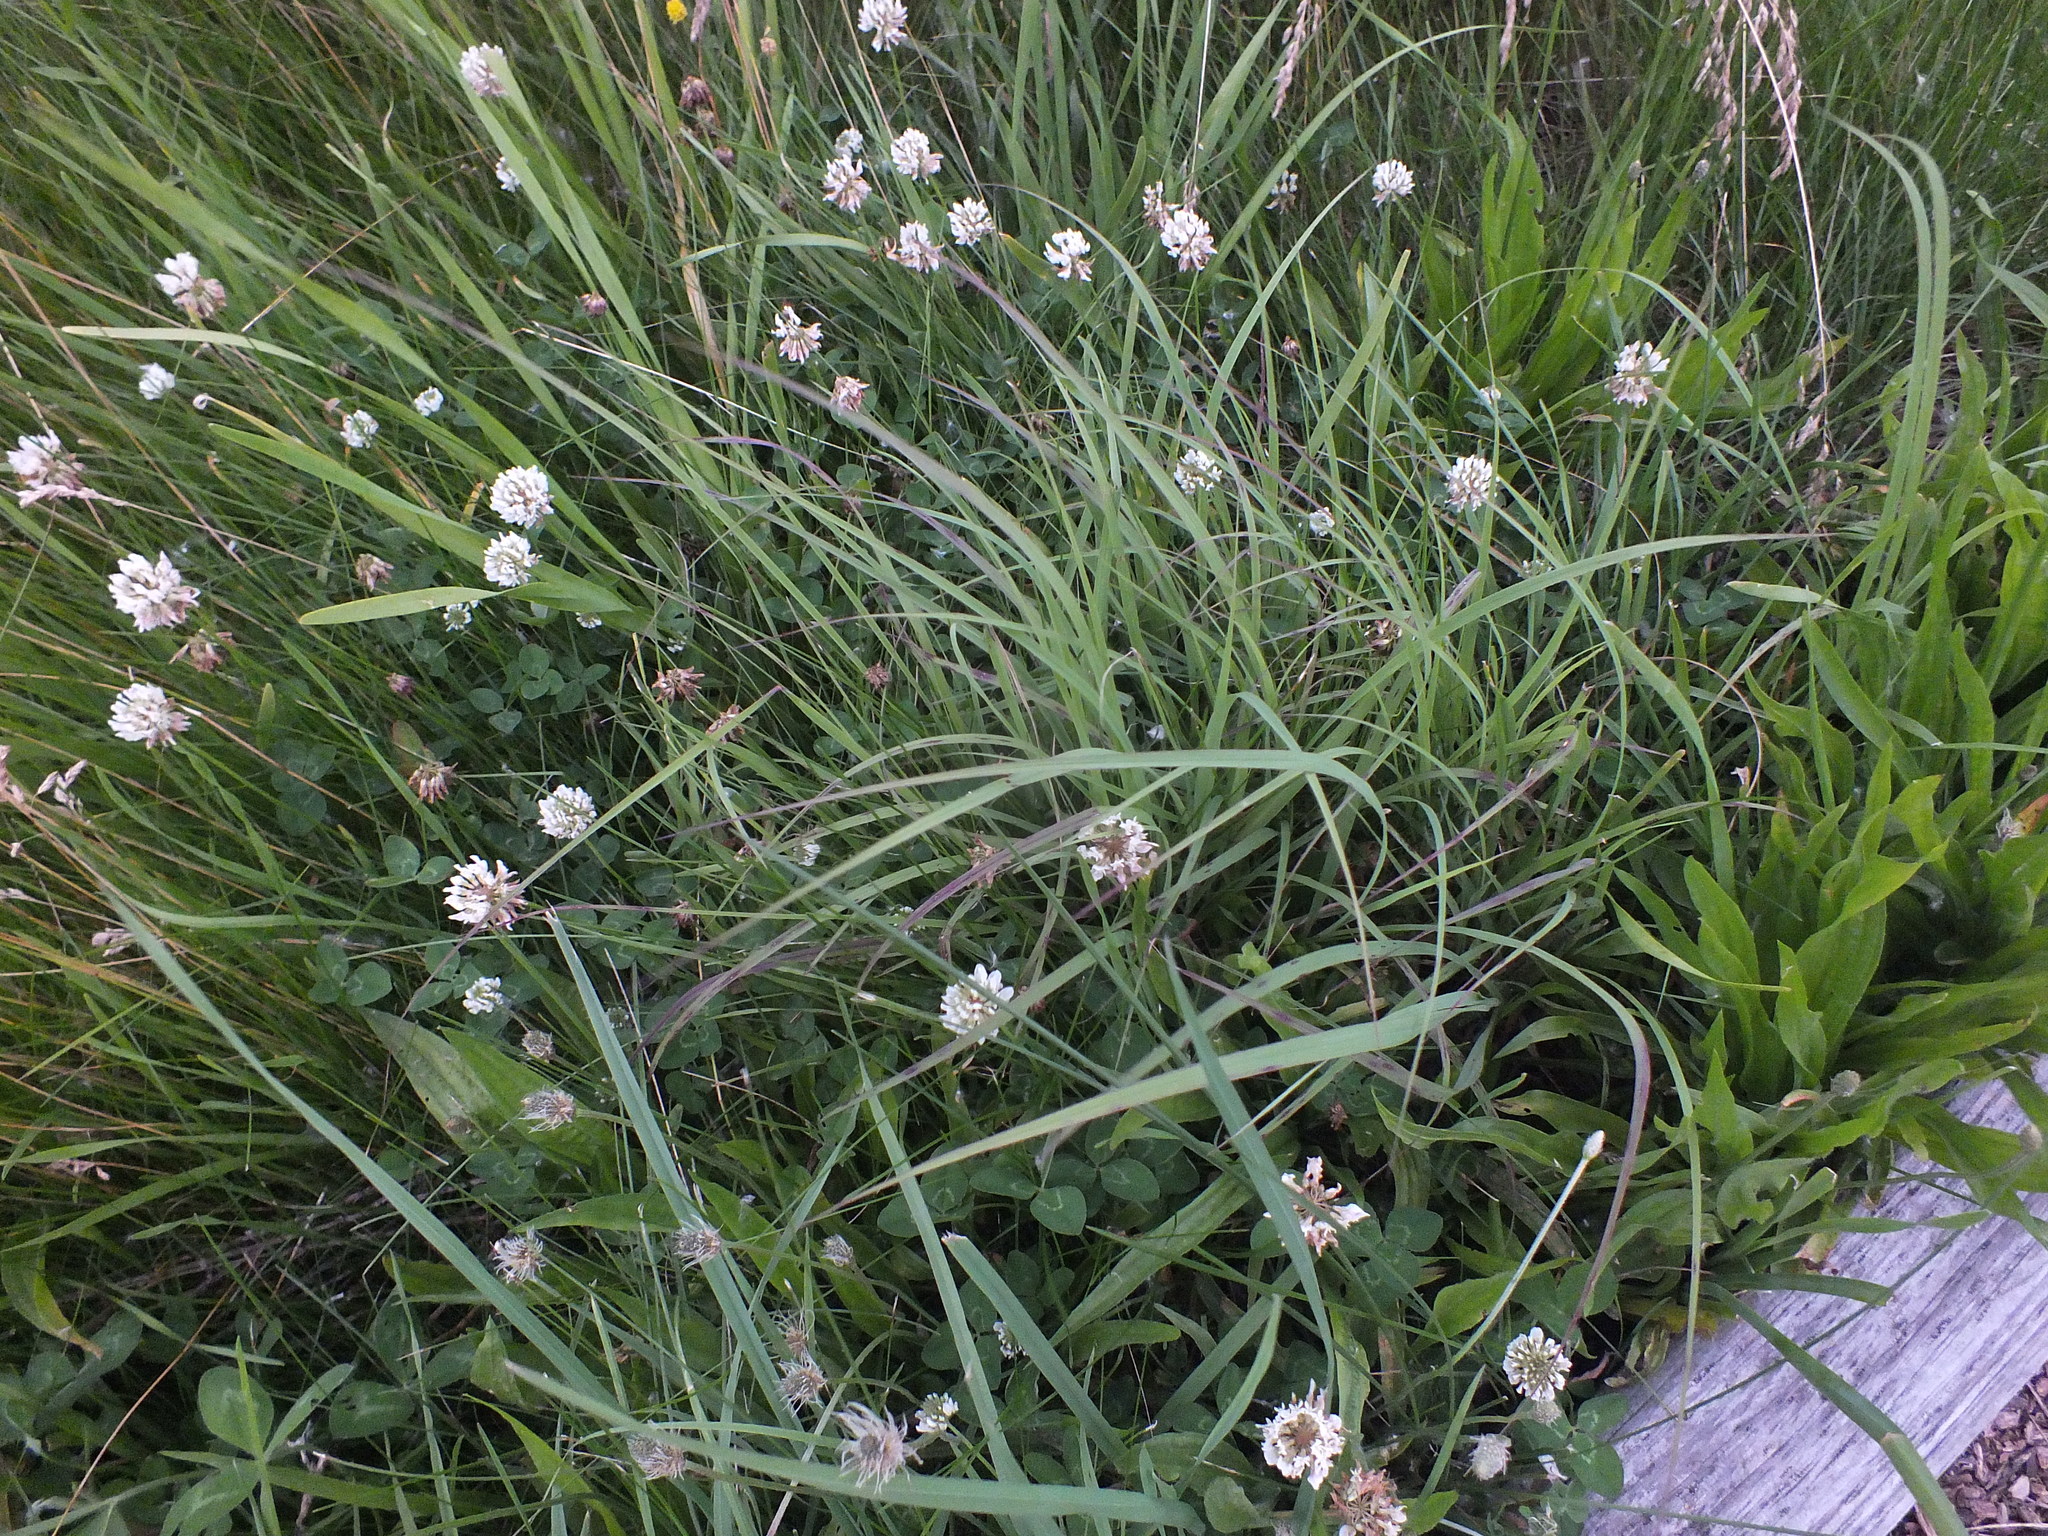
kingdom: Plantae
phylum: Tracheophyta
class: Magnoliopsida
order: Fabales
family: Fabaceae
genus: Trifolium
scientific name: Trifolium repens
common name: White clover
